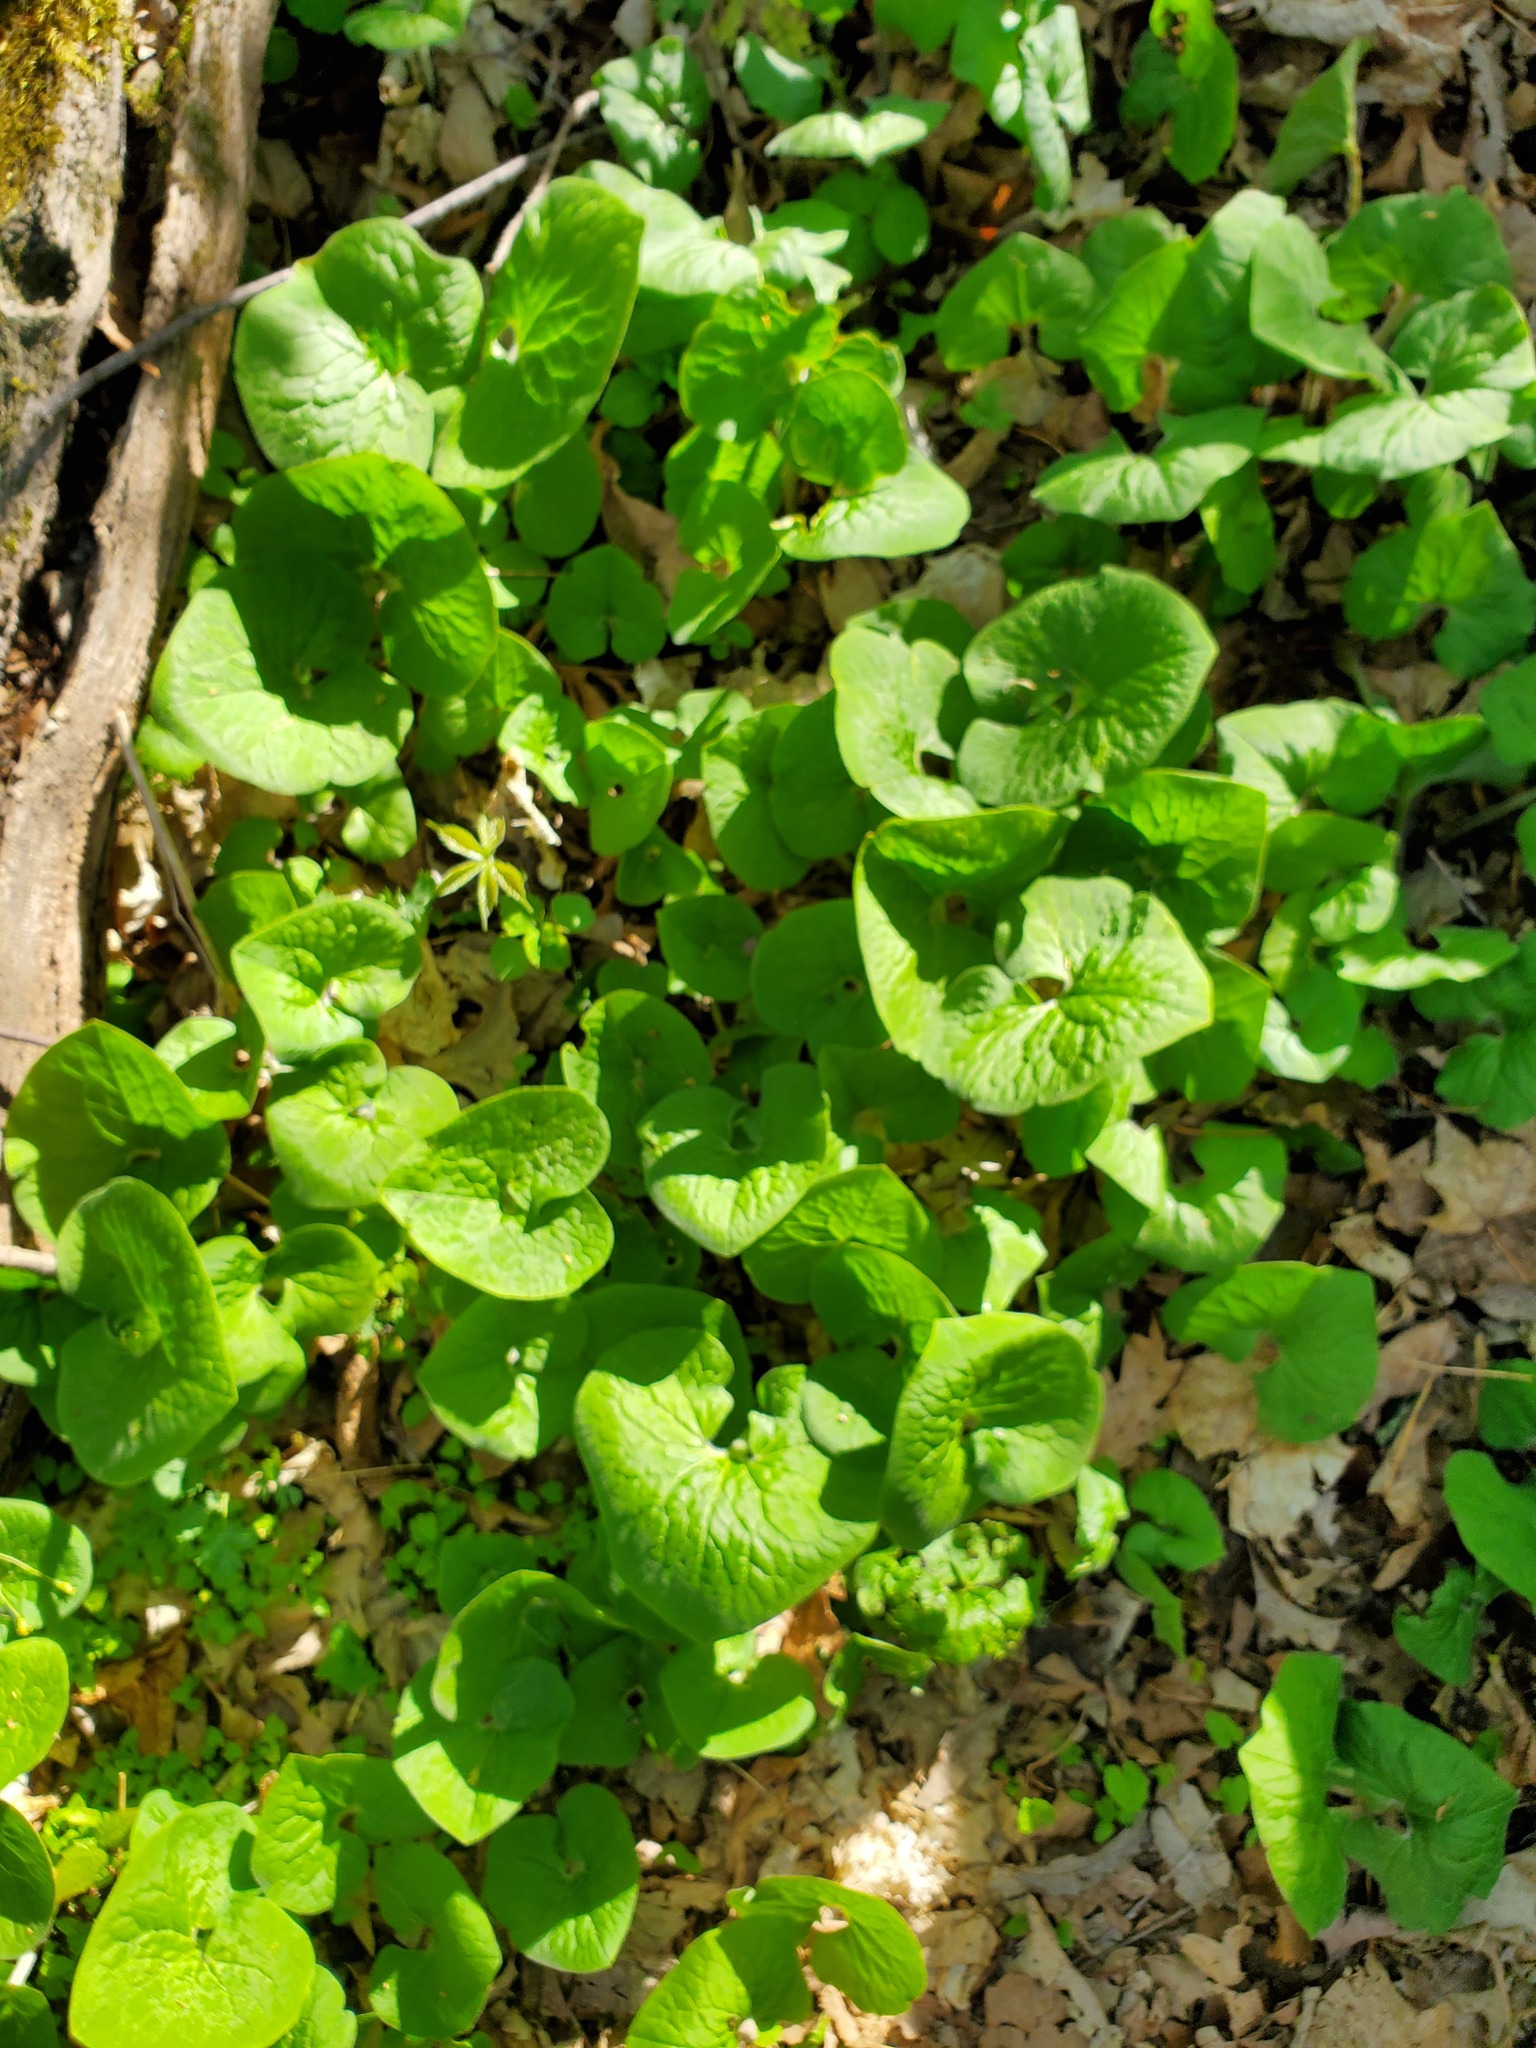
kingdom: Plantae
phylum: Tracheophyta
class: Magnoliopsida
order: Piperales
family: Aristolochiaceae
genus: Asarum
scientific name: Asarum canadense
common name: Wild ginger
